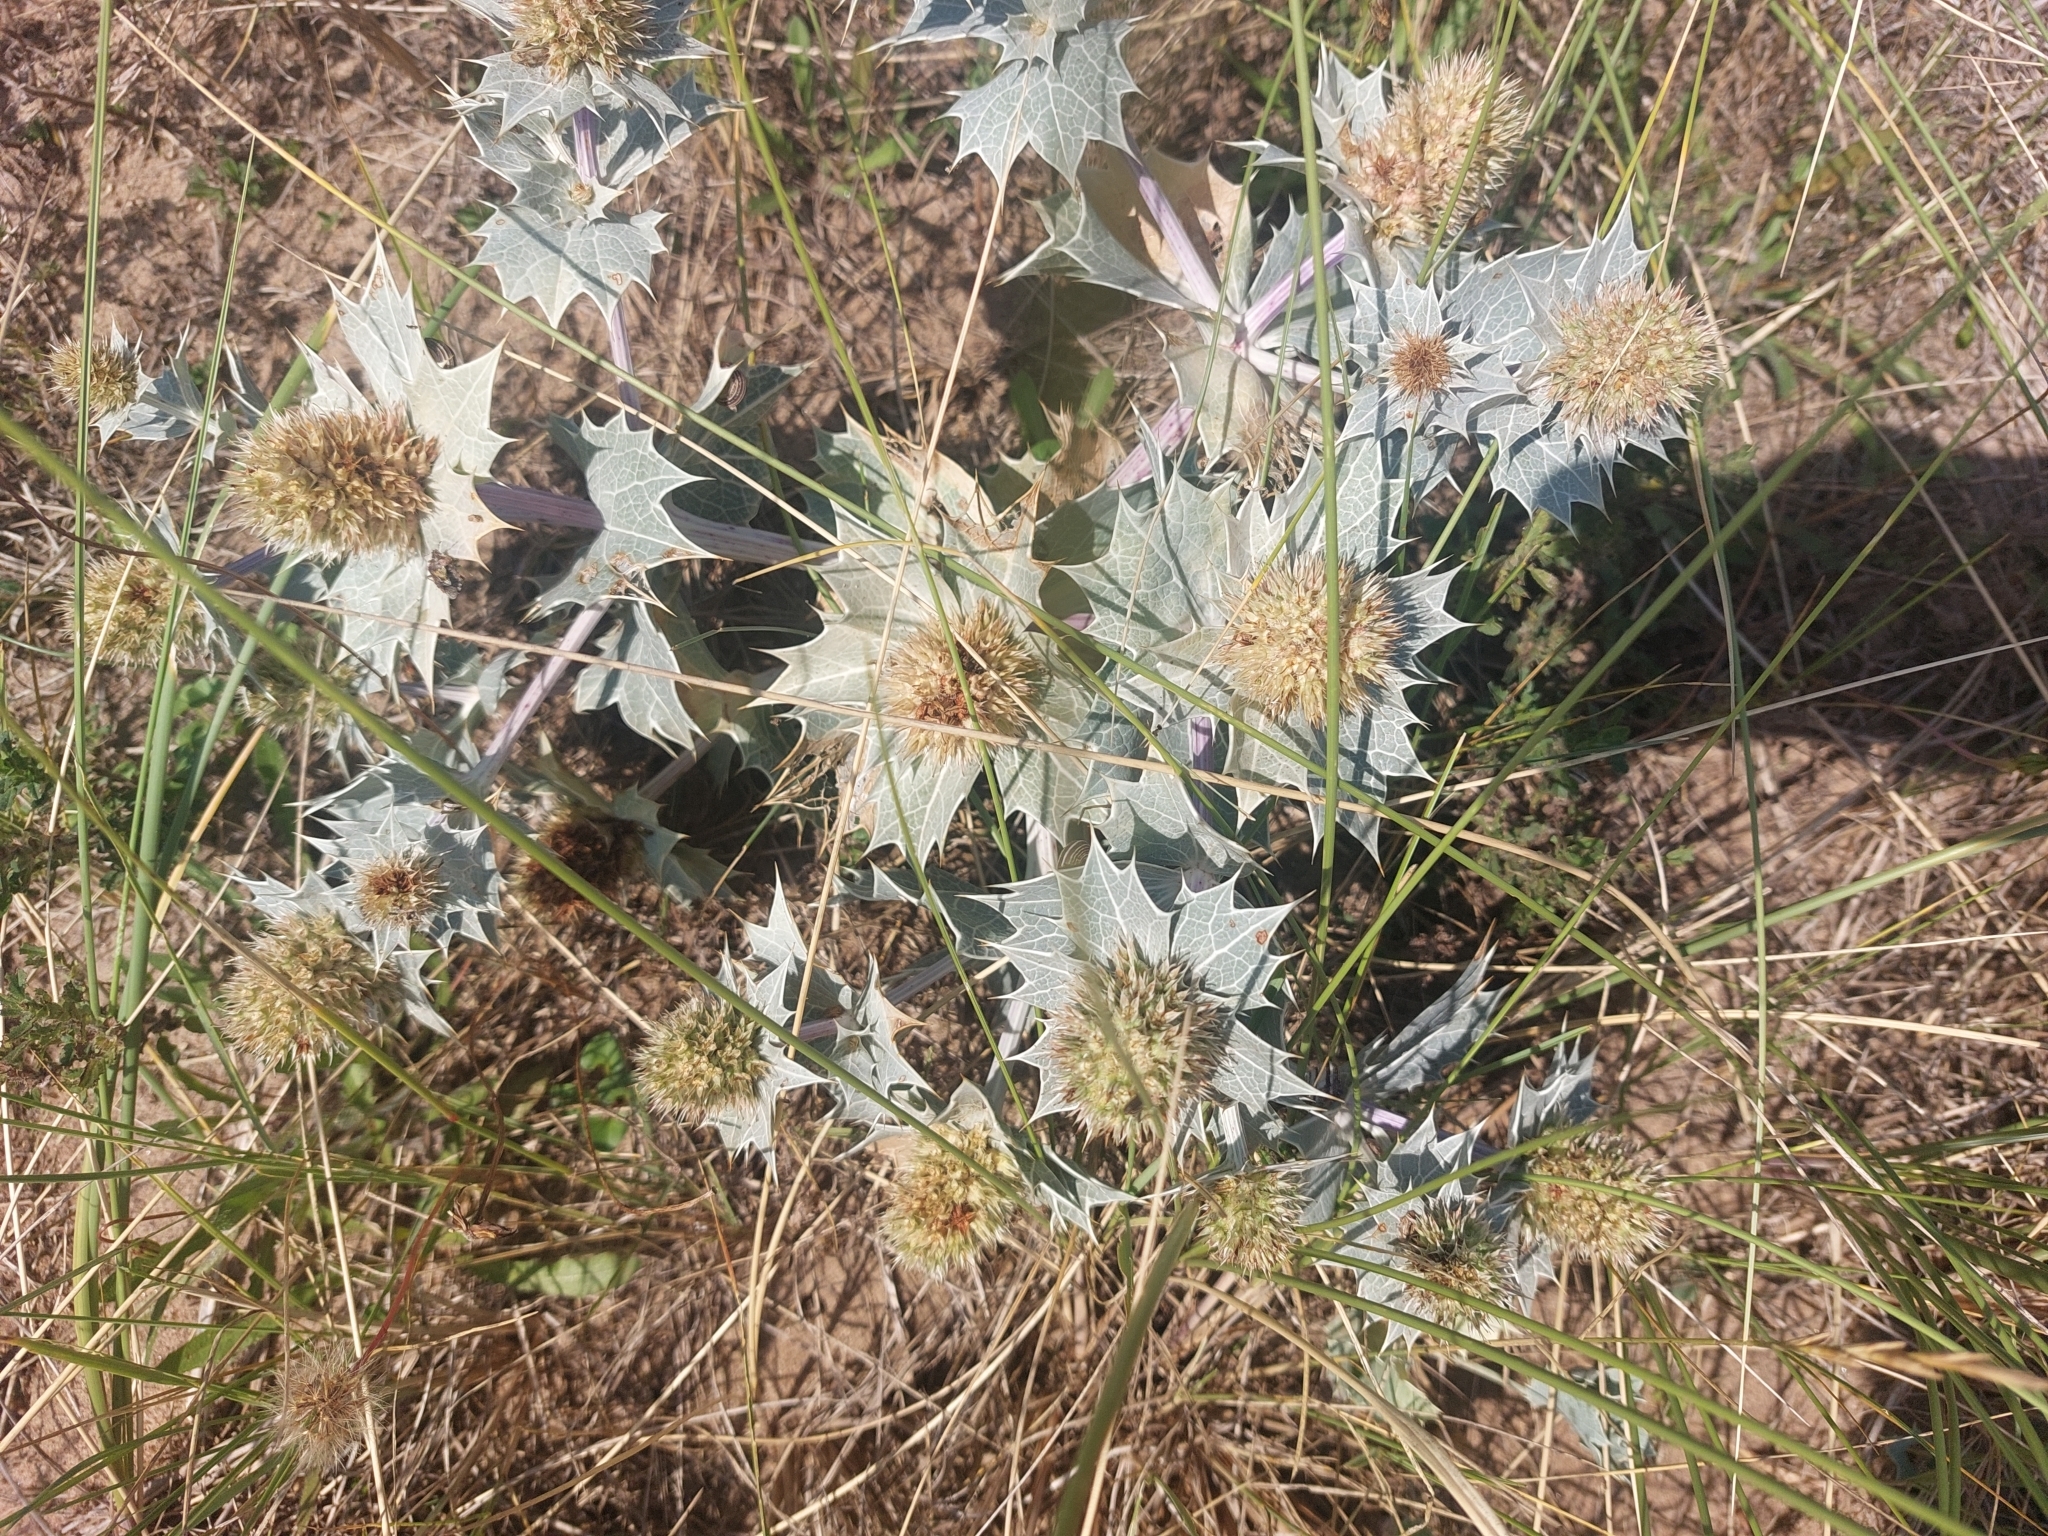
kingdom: Plantae
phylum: Tracheophyta
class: Magnoliopsida
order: Apiales
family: Apiaceae
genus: Eryngium
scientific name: Eryngium maritimum
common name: Sea-holly
